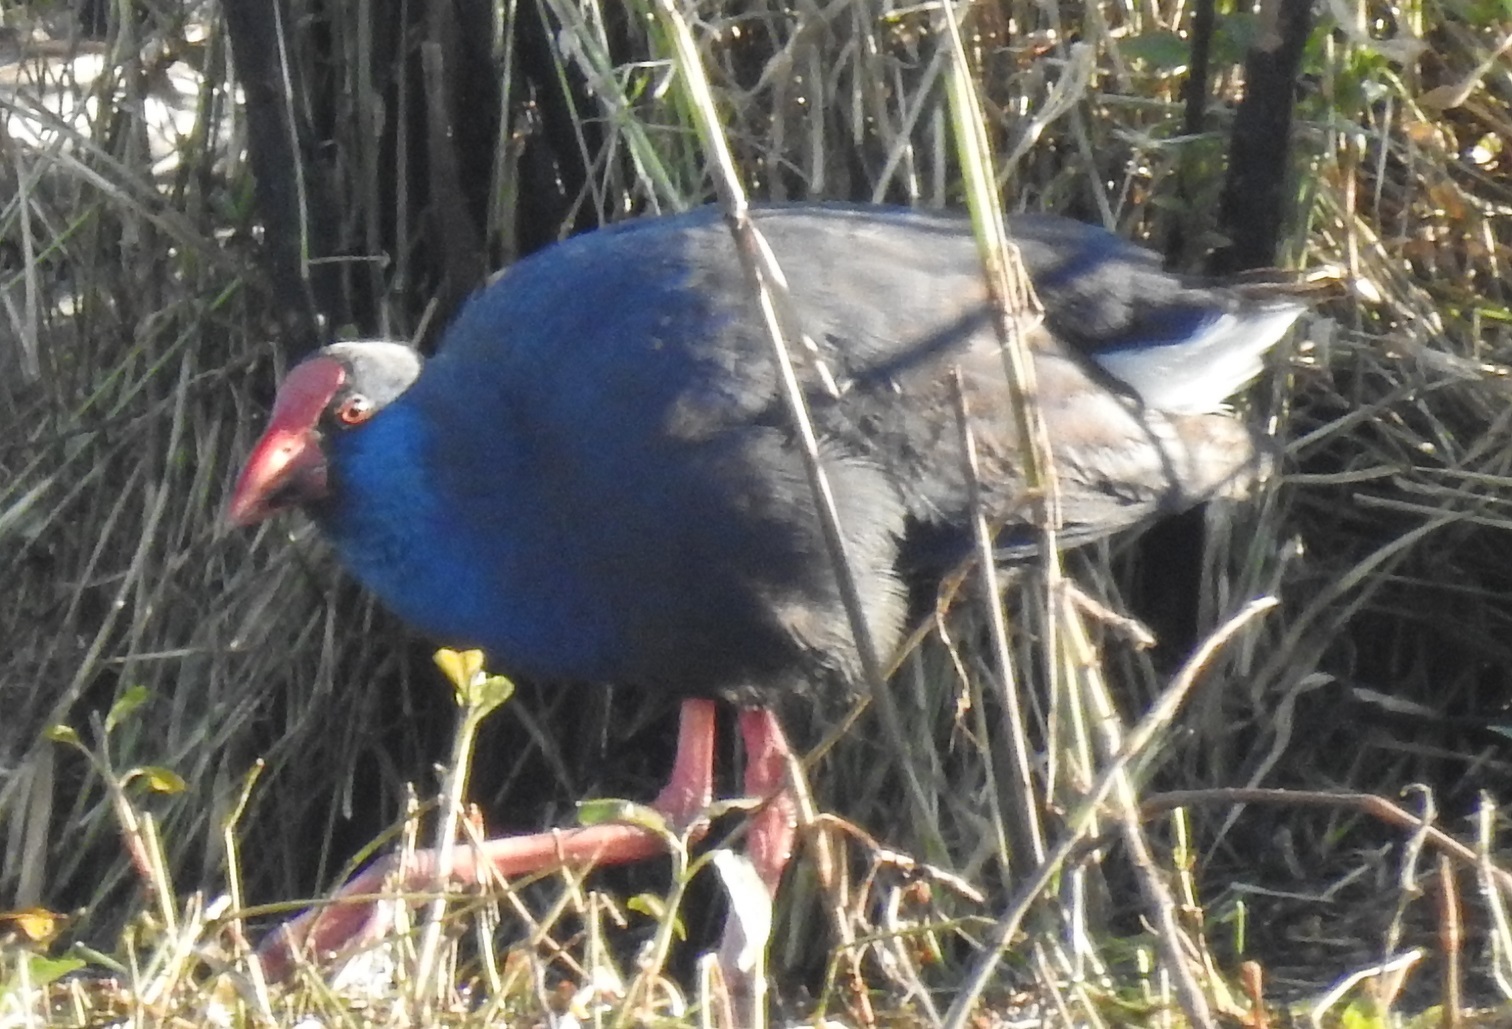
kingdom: Animalia
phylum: Chordata
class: Aves
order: Gruiformes
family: Rallidae
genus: Porphyrio
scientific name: Porphyrio porphyrio
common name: Purple swamphen
